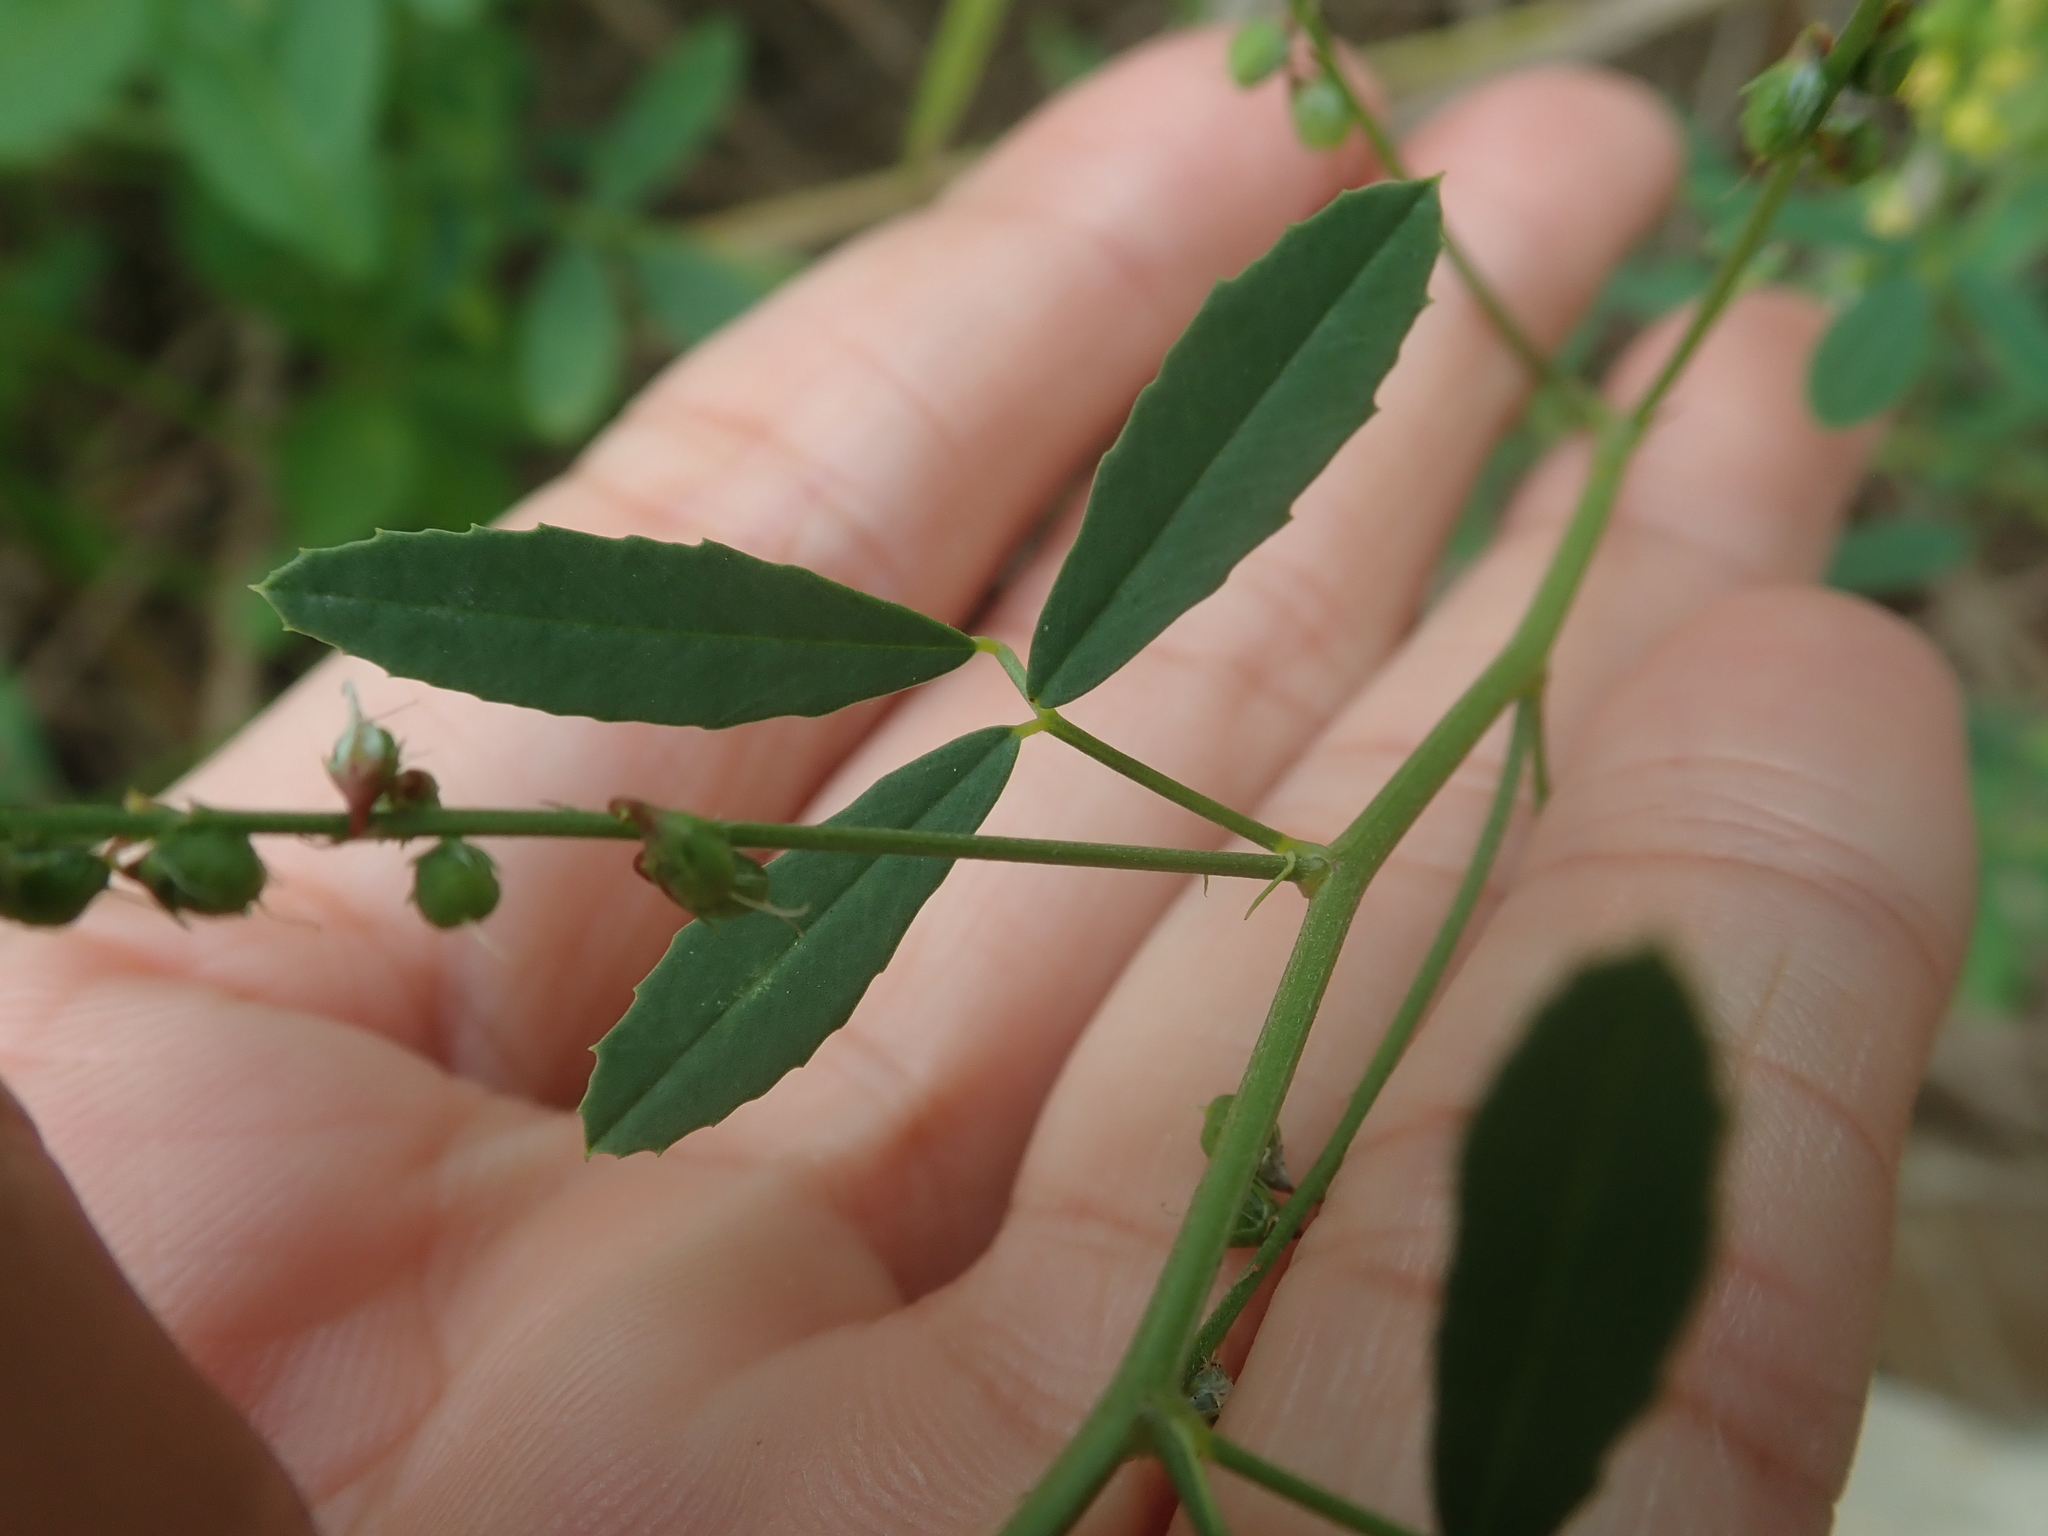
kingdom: Plantae
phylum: Tracheophyta
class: Magnoliopsida
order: Fabales
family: Fabaceae
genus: Melilotus
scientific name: Melilotus suaveolens
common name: Daghestan sweet-clover
